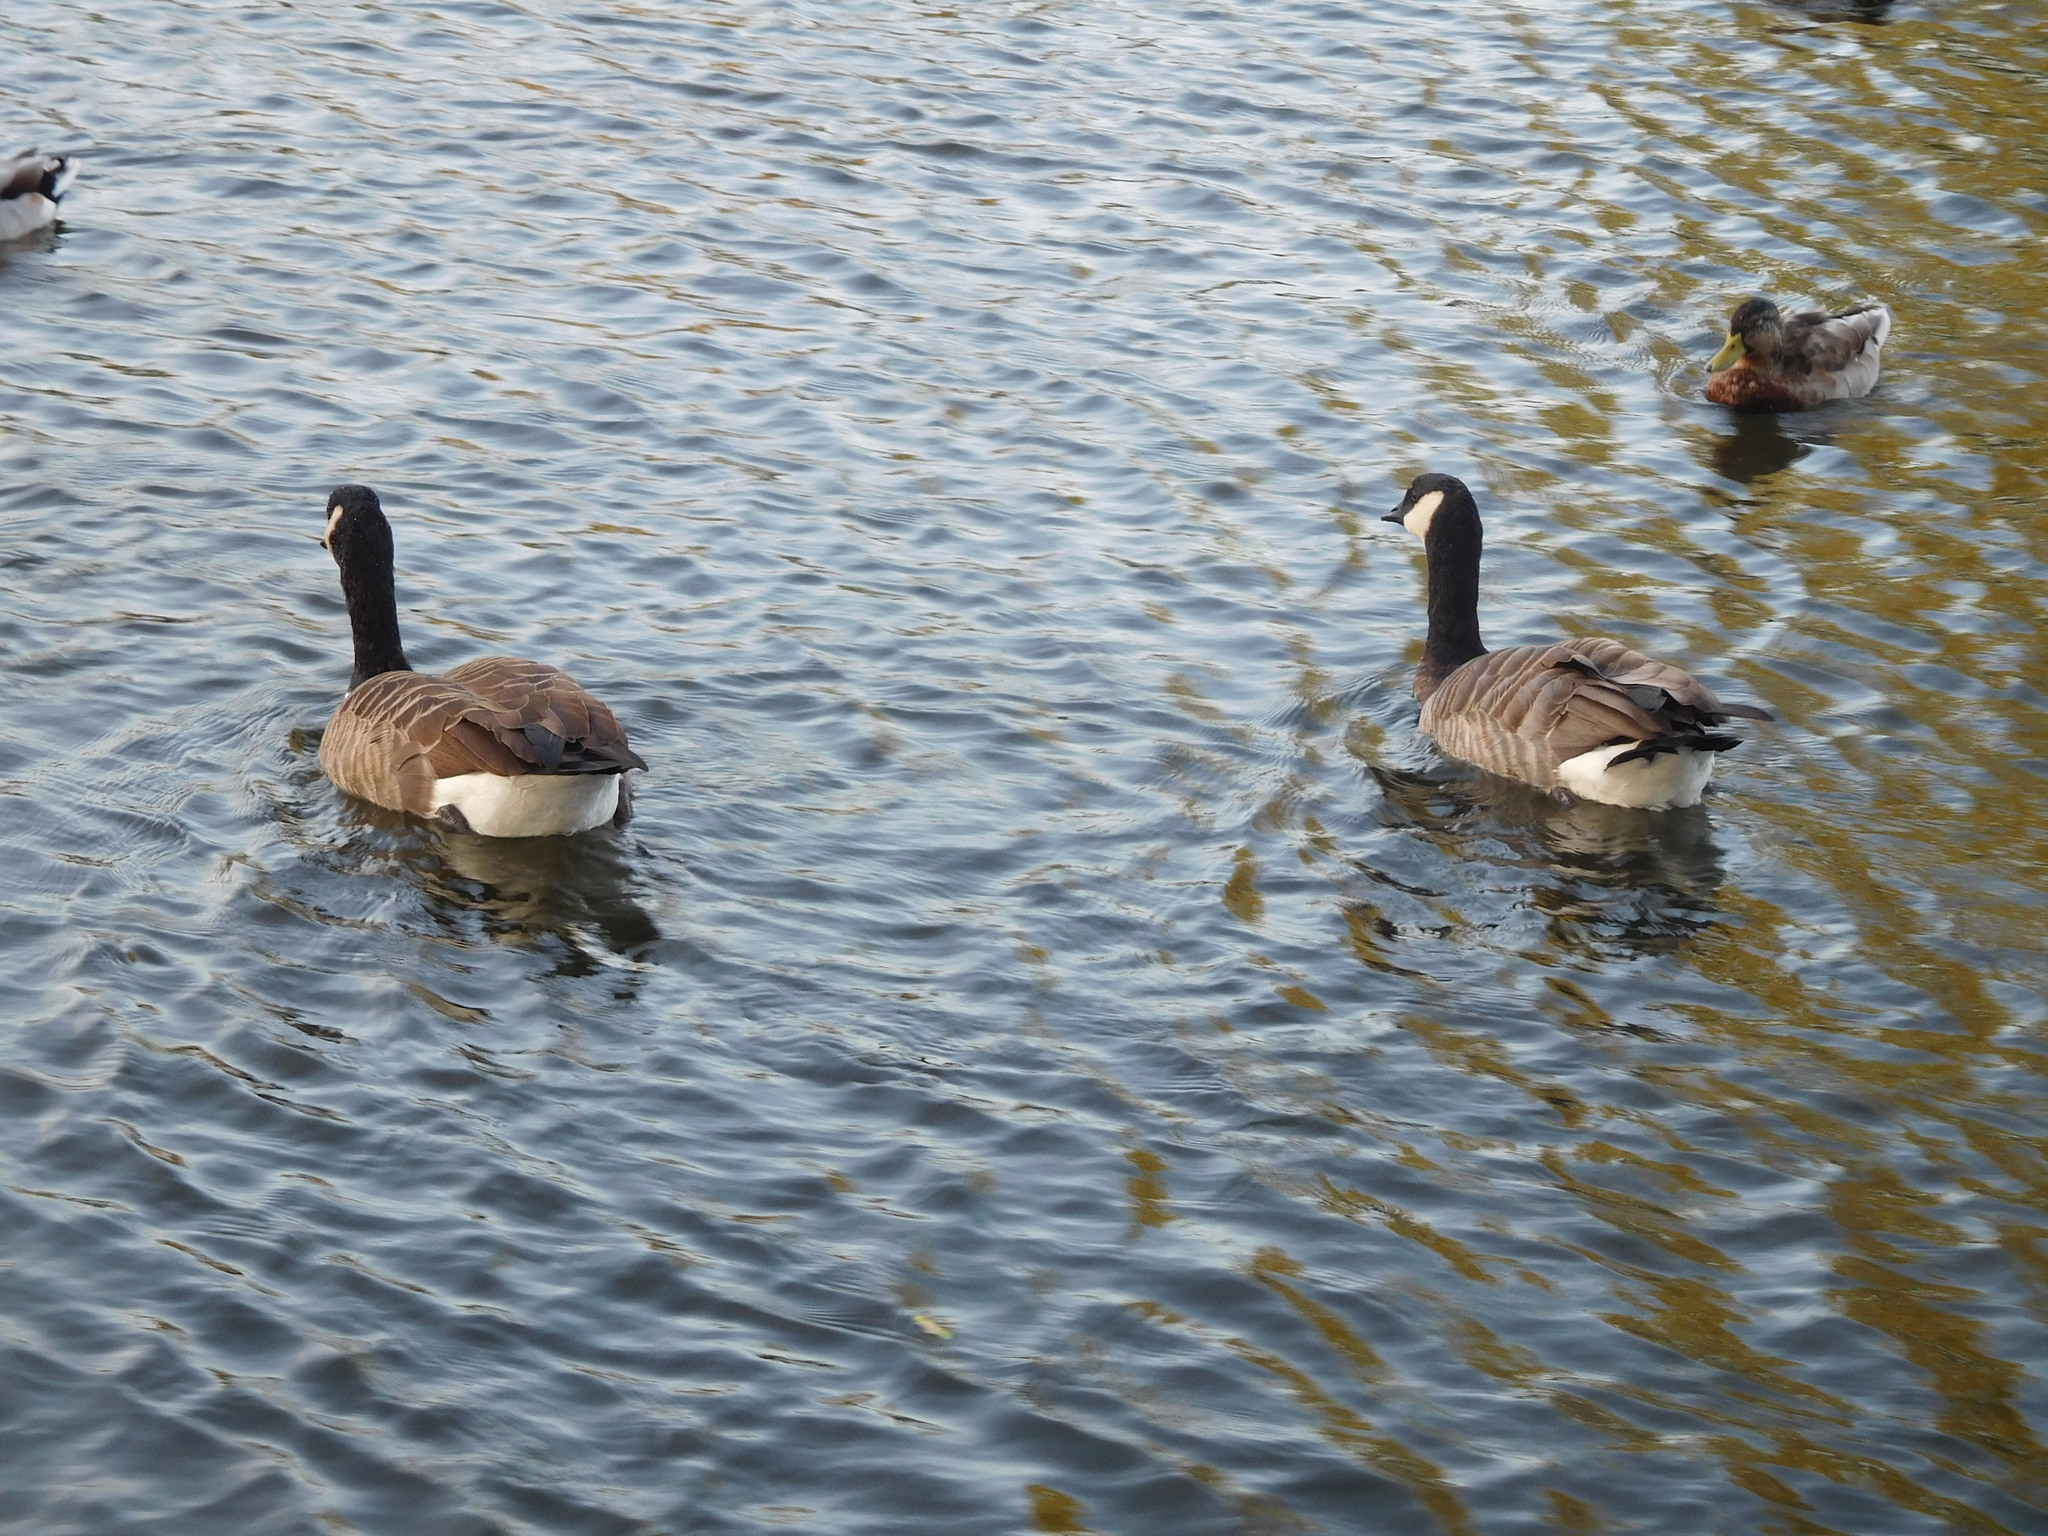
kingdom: Animalia
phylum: Chordata
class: Aves
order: Anseriformes
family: Anatidae
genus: Branta
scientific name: Branta canadensis
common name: Canada goose
